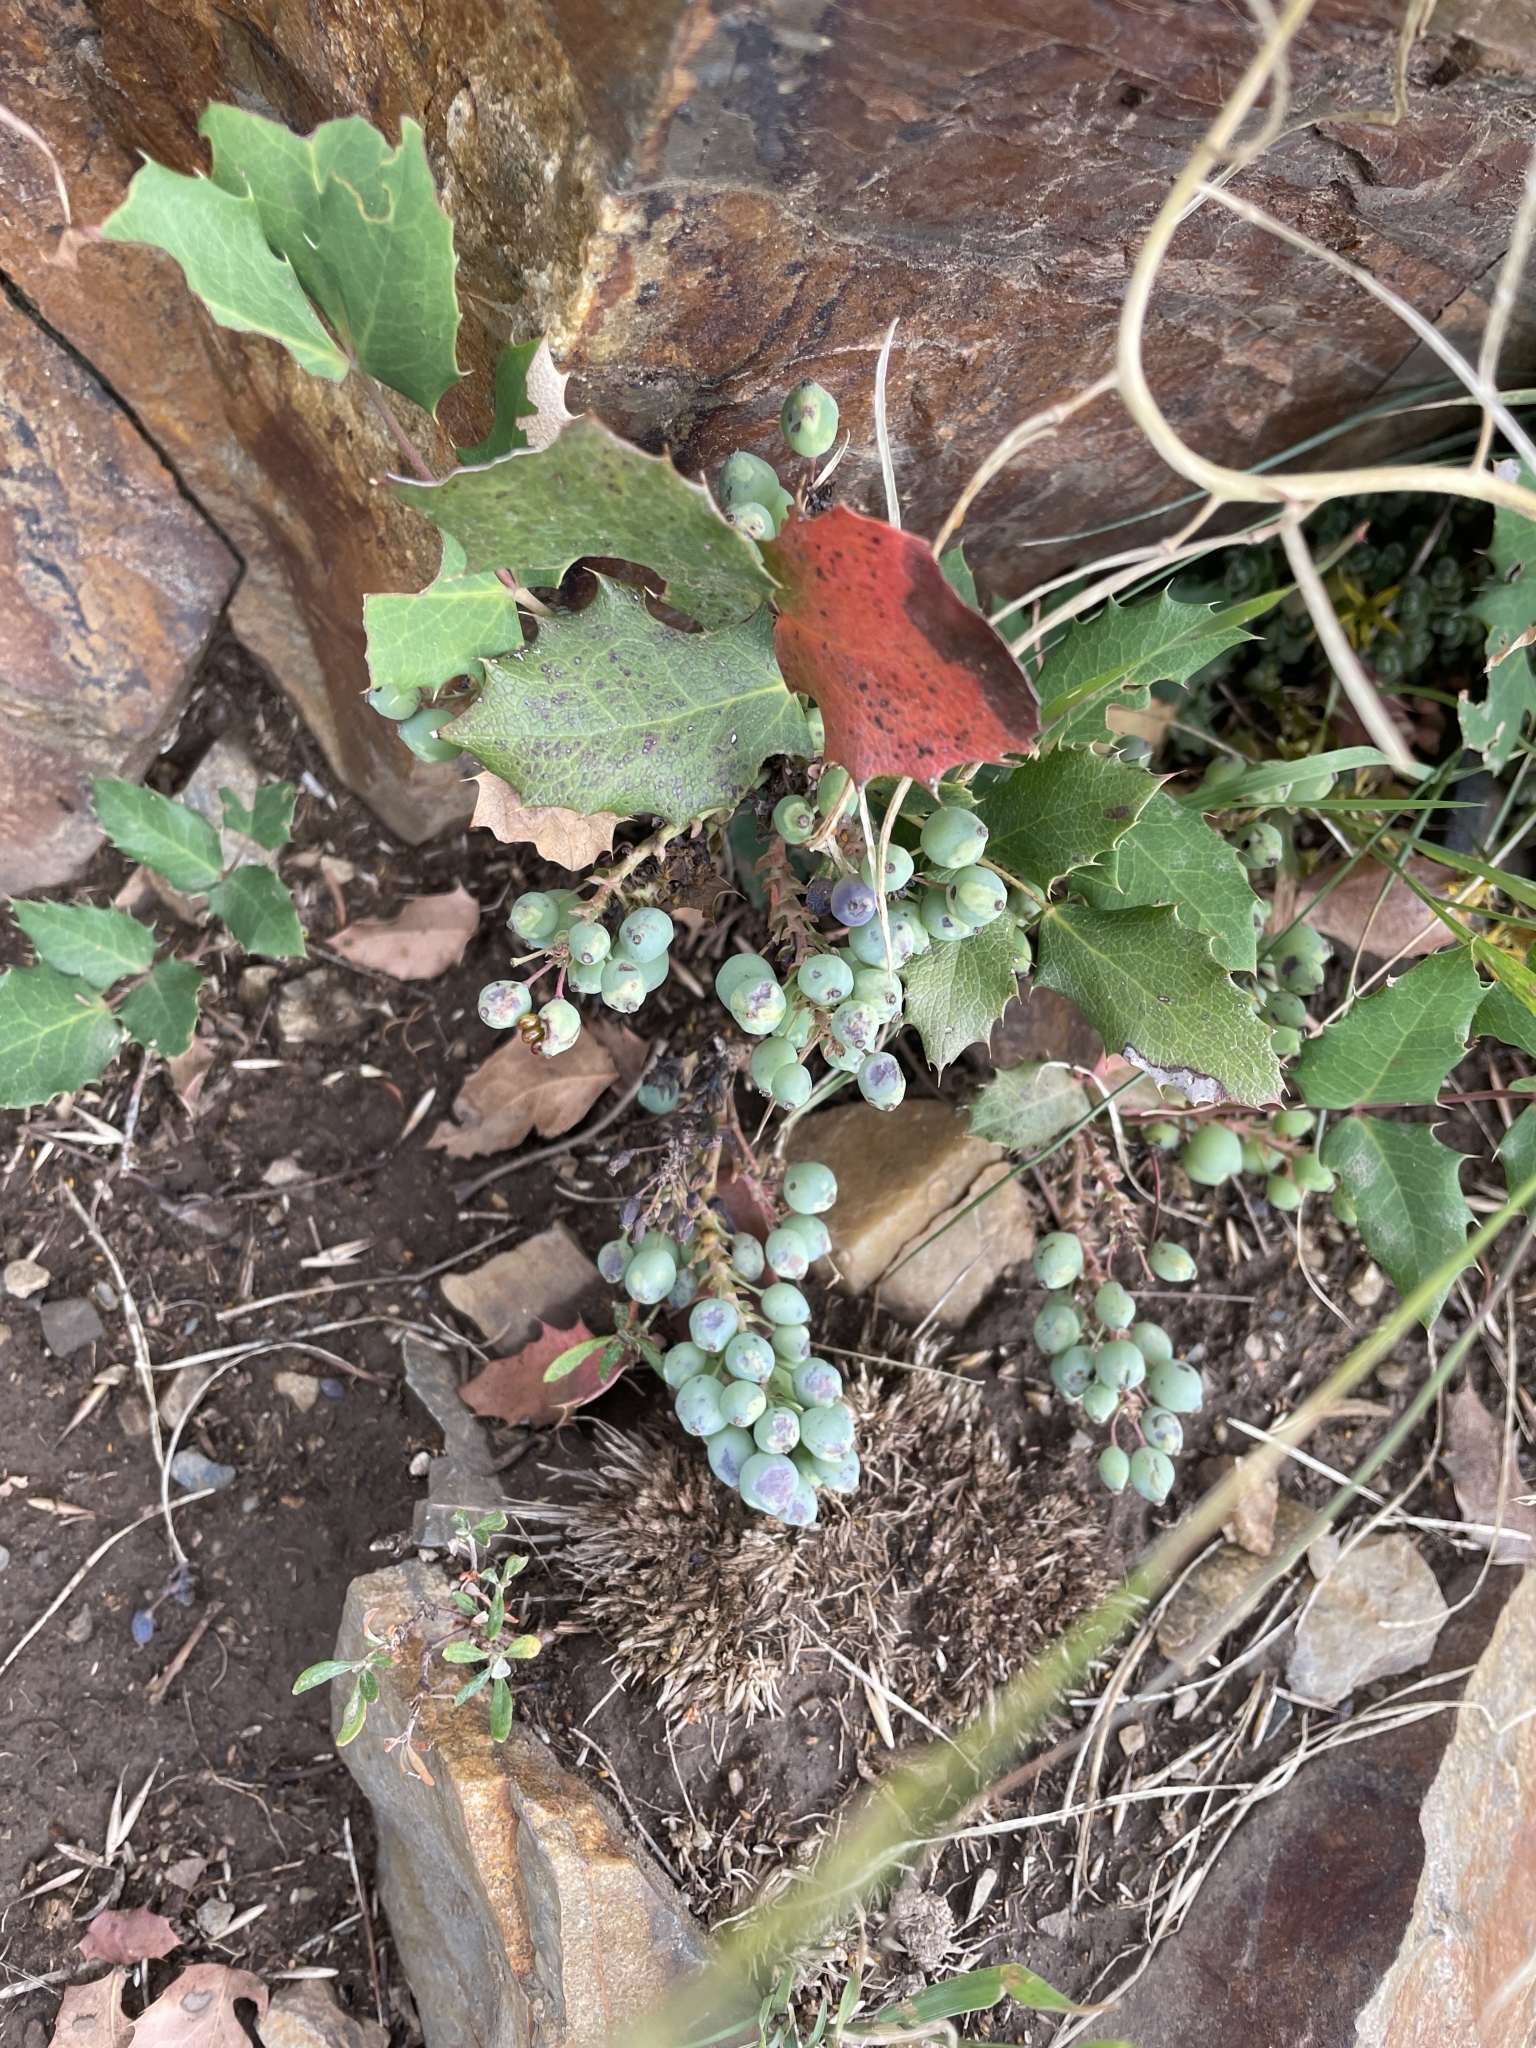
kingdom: Plantae
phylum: Tracheophyta
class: Magnoliopsida
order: Ranunculales
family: Berberidaceae
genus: Mahonia
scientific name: Mahonia repens
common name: Creeping oregon-grape
